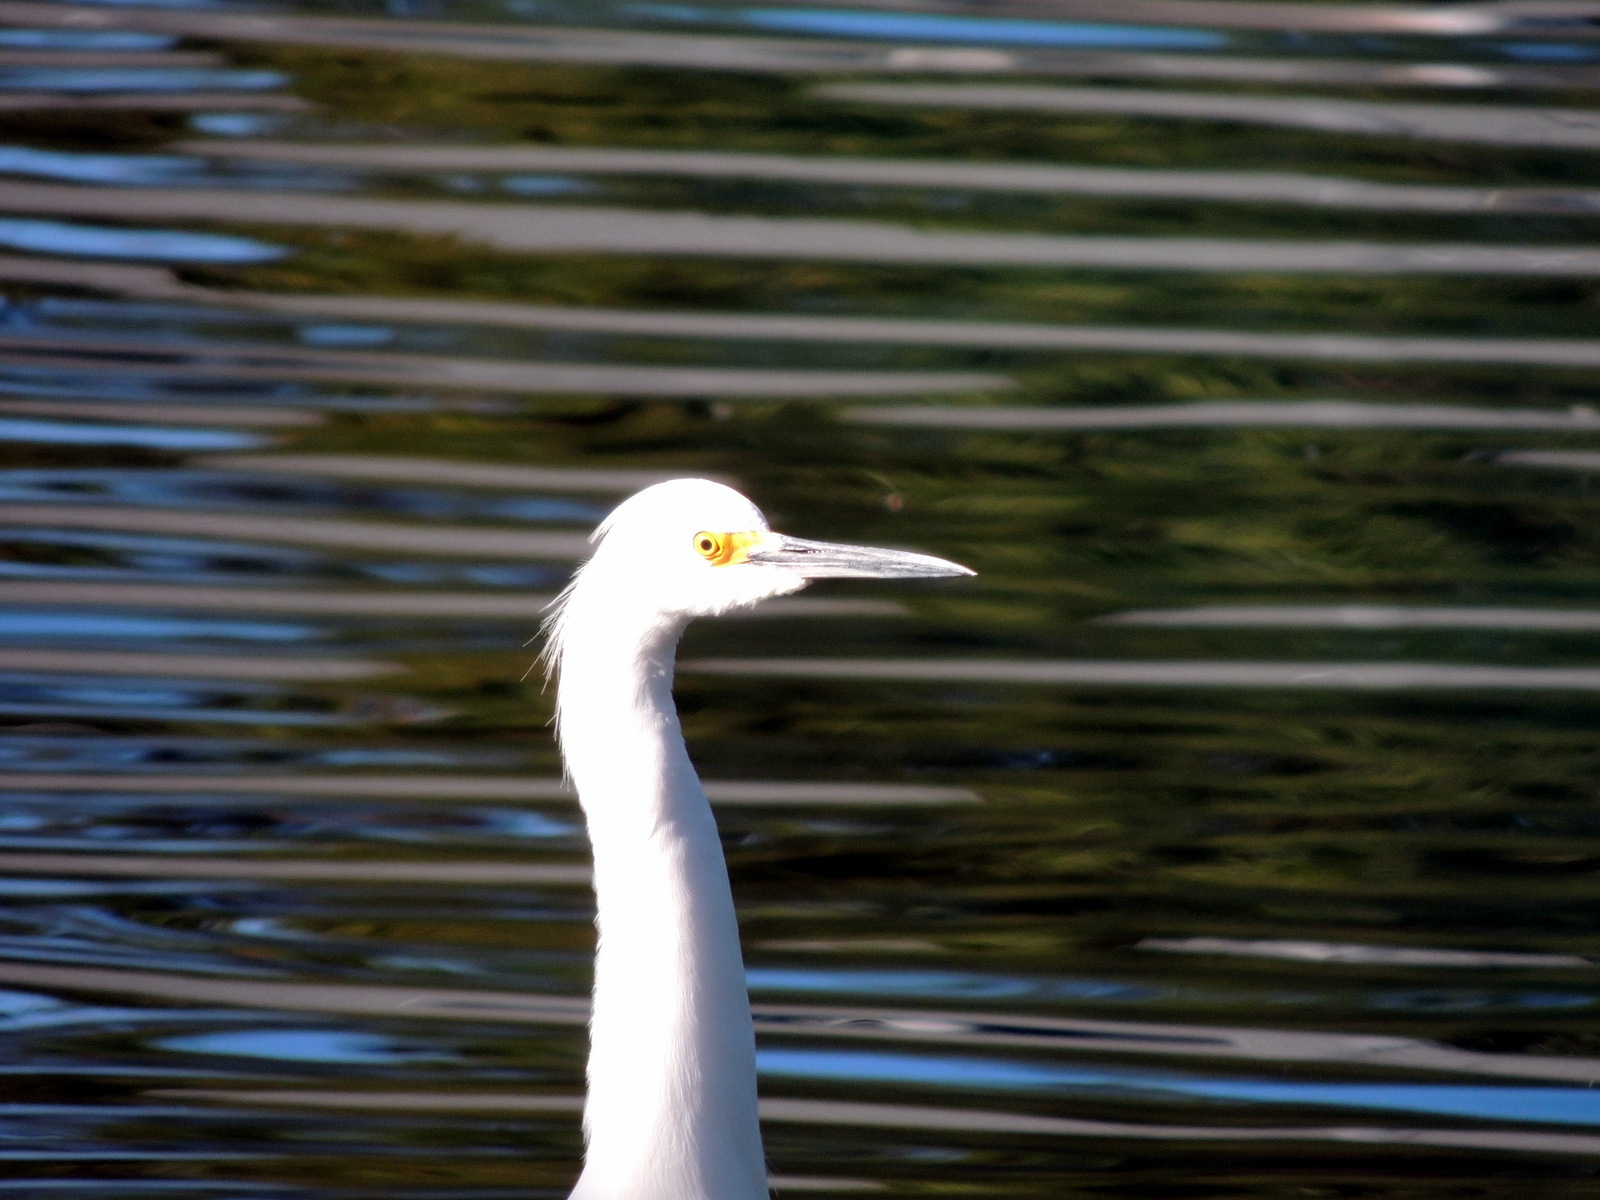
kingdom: Animalia
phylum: Chordata
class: Aves
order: Pelecaniformes
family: Ardeidae
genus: Egretta
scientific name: Egretta thula
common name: Snowy egret
